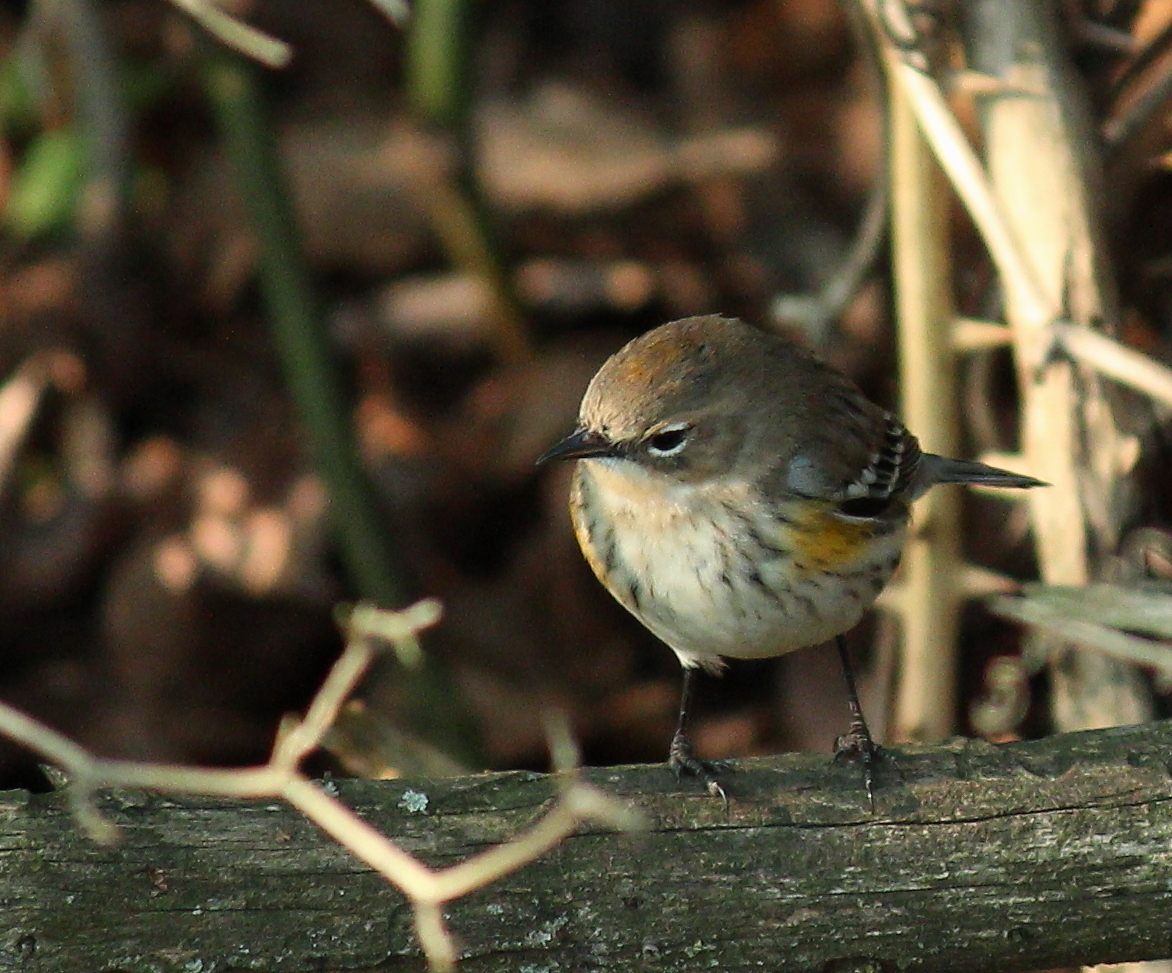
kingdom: Animalia
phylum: Chordata
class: Aves
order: Passeriformes
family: Parulidae
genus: Setophaga
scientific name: Setophaga coronata
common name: Myrtle warbler
